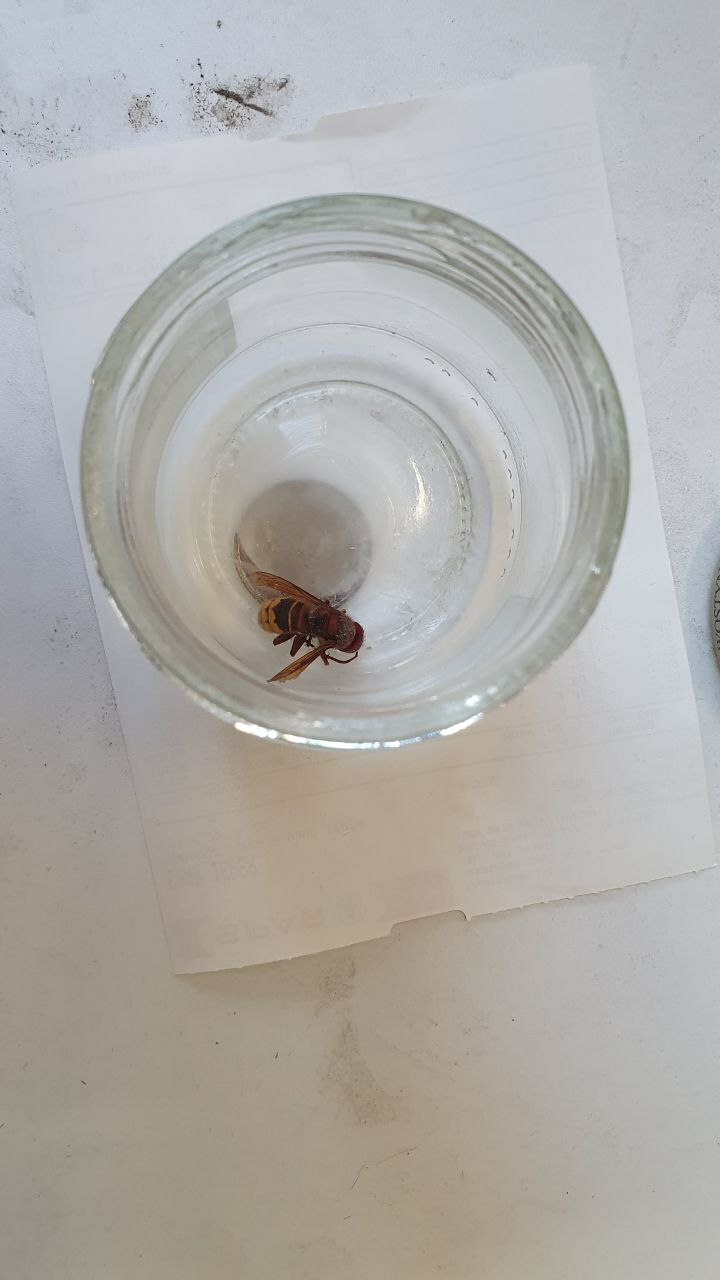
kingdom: Animalia
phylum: Arthropoda
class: Insecta
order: Hymenoptera
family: Vespidae
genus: Vespa
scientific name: Vespa crabro
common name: Hornet
